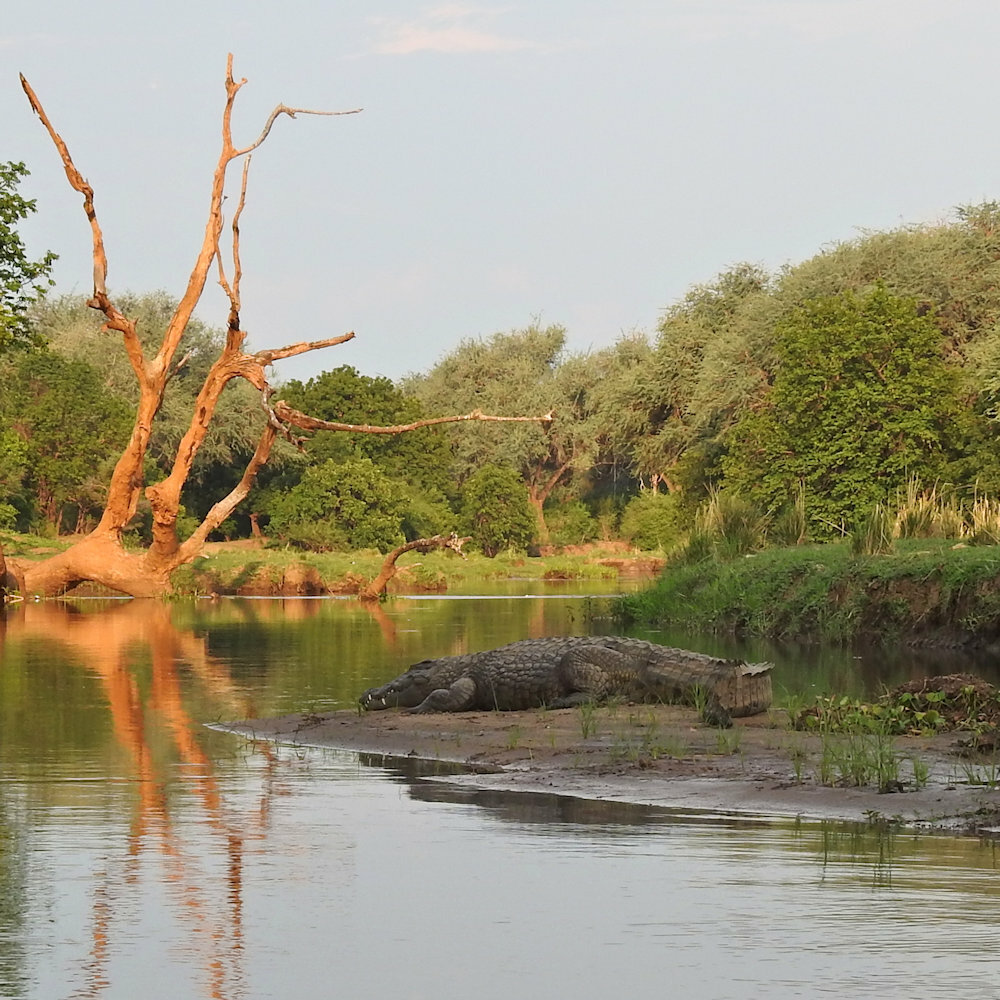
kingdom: Animalia
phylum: Chordata
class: Crocodylia
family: Crocodylidae
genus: Crocodylus
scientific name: Crocodylus niloticus
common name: Nile crocodile
